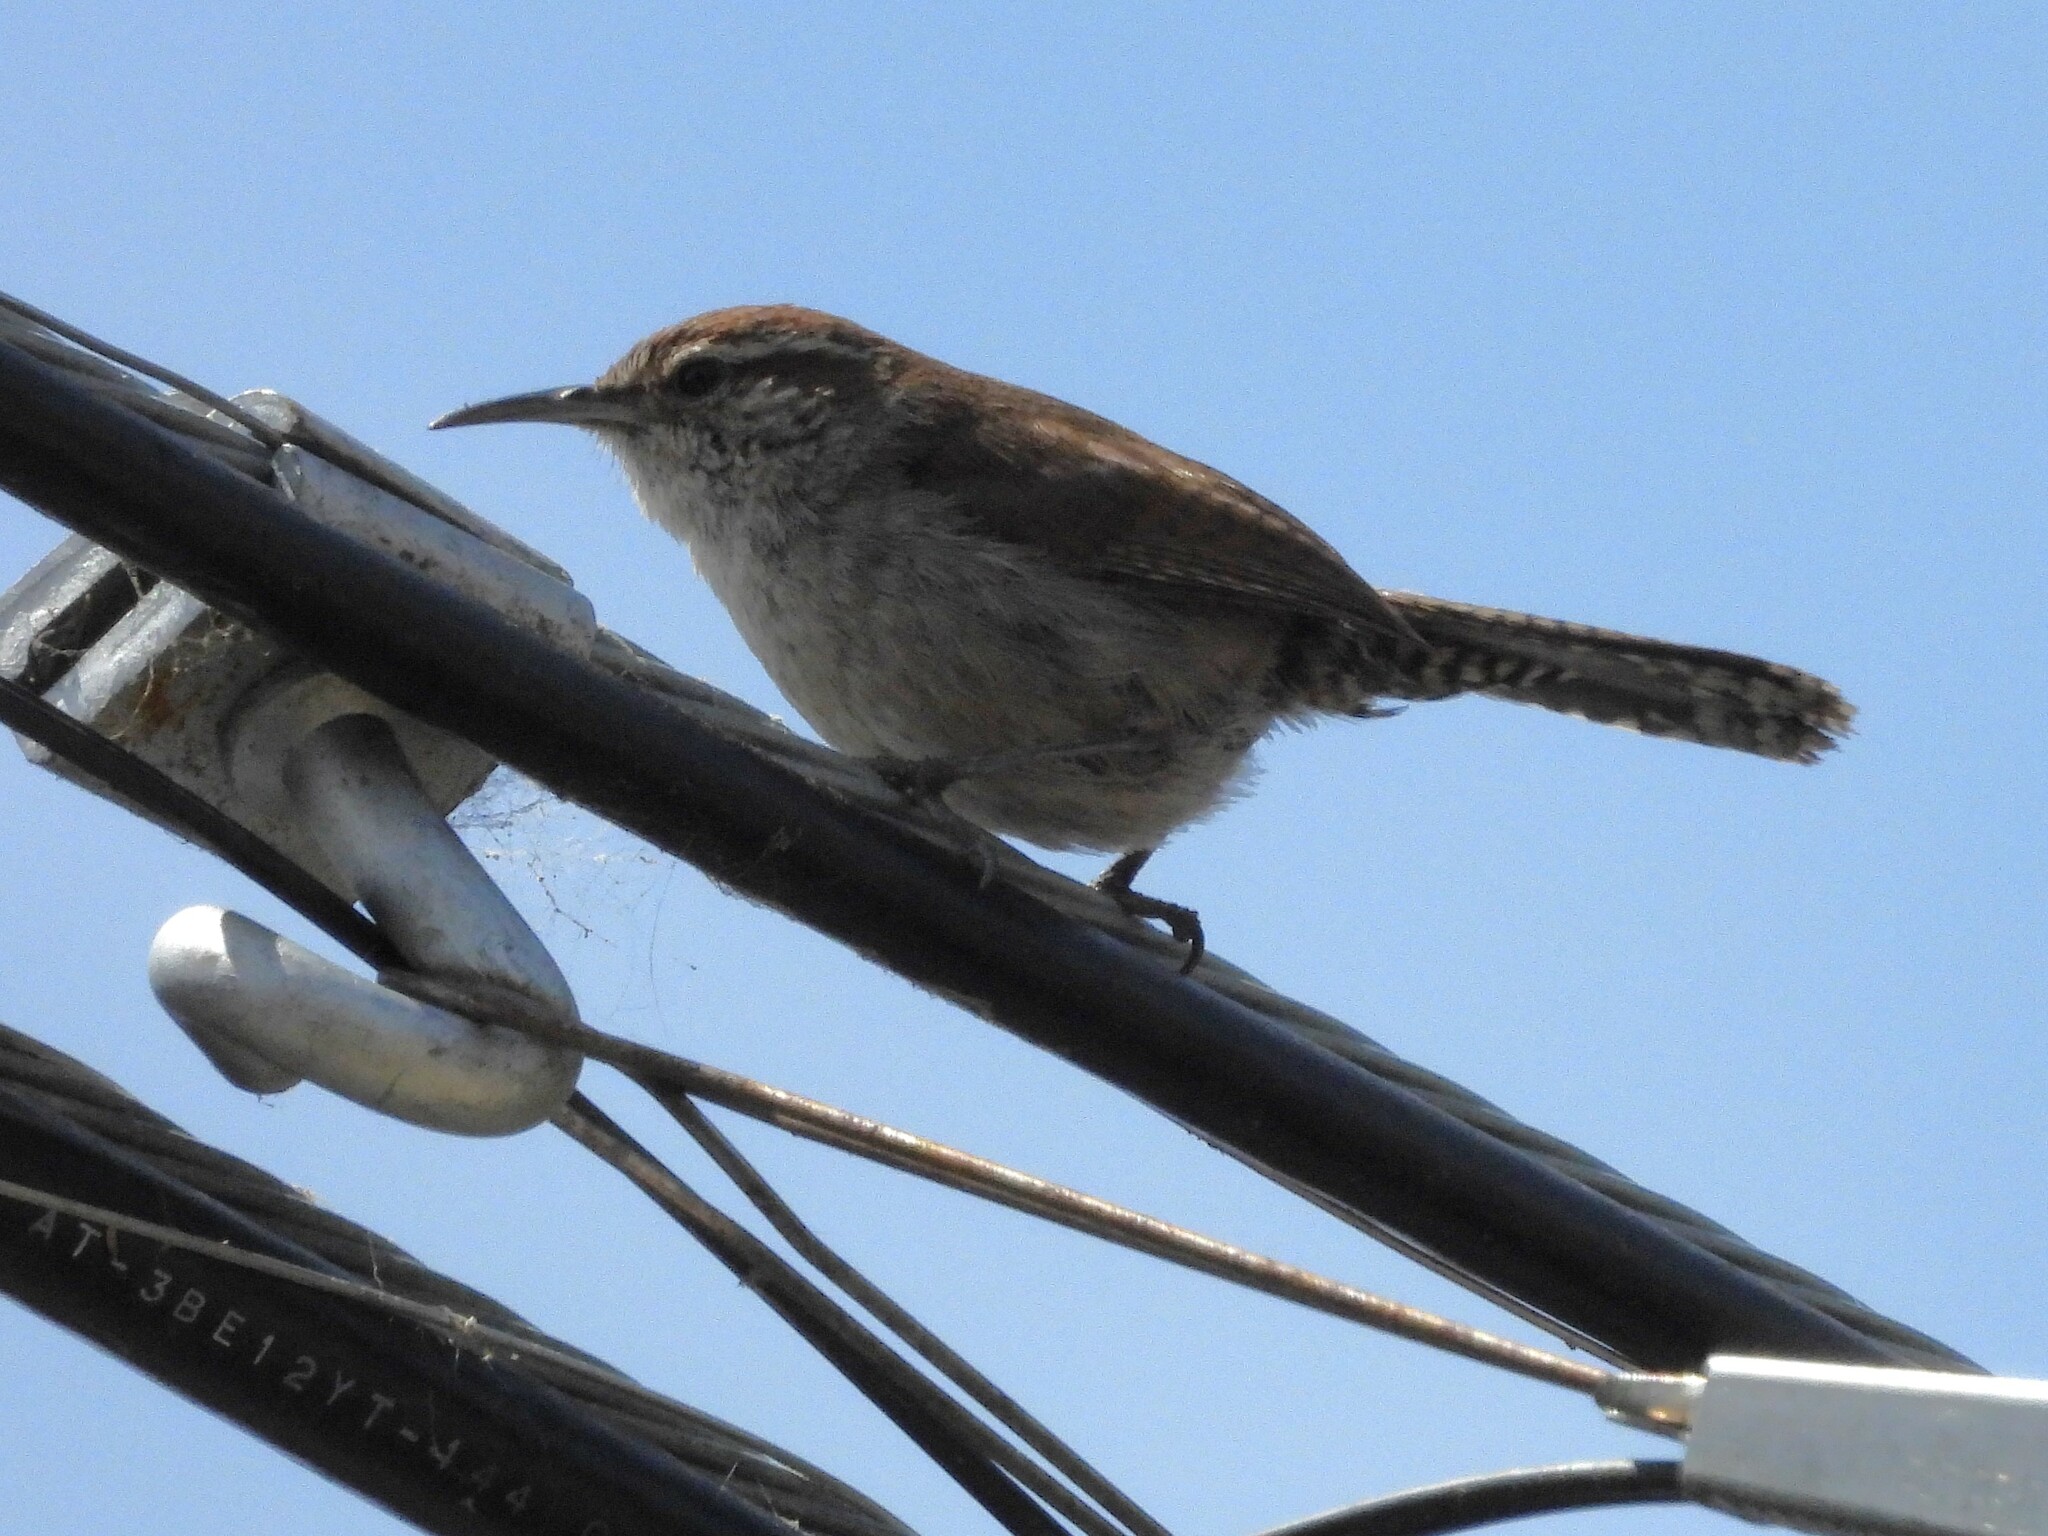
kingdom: Animalia
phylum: Chordata
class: Aves
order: Passeriformes
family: Troglodytidae
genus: Thryomanes
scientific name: Thryomanes bewickii
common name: Bewick's wren
